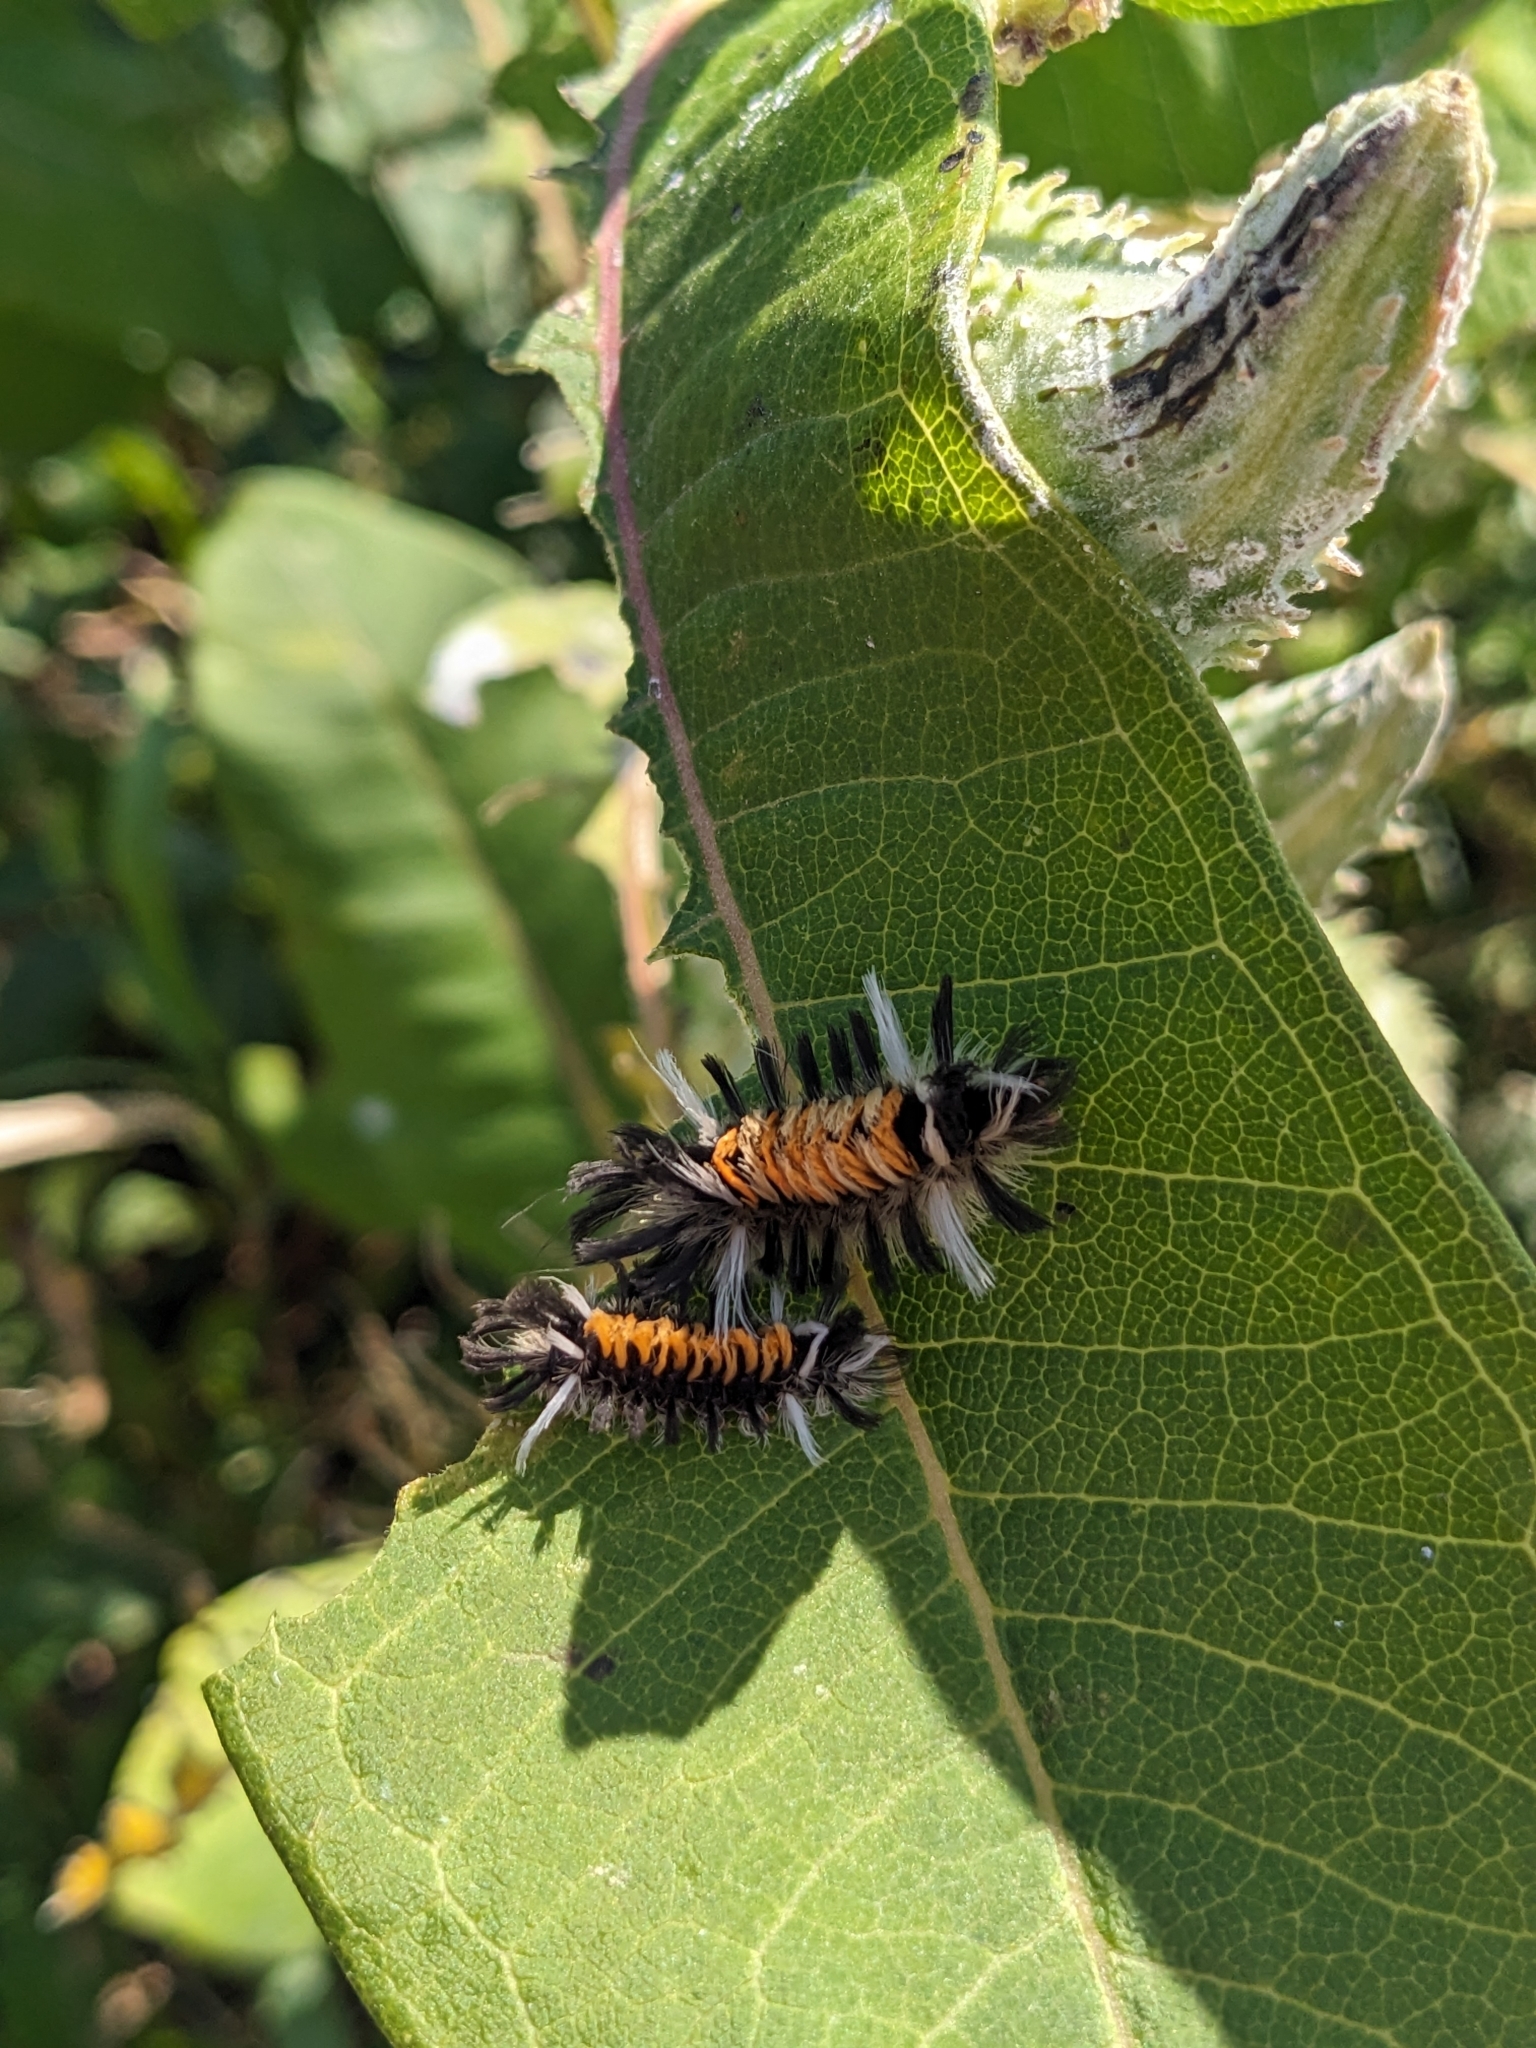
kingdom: Animalia
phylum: Arthropoda
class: Insecta
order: Lepidoptera
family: Erebidae
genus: Euchaetes
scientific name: Euchaetes egle
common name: Milkweed tussock moth
